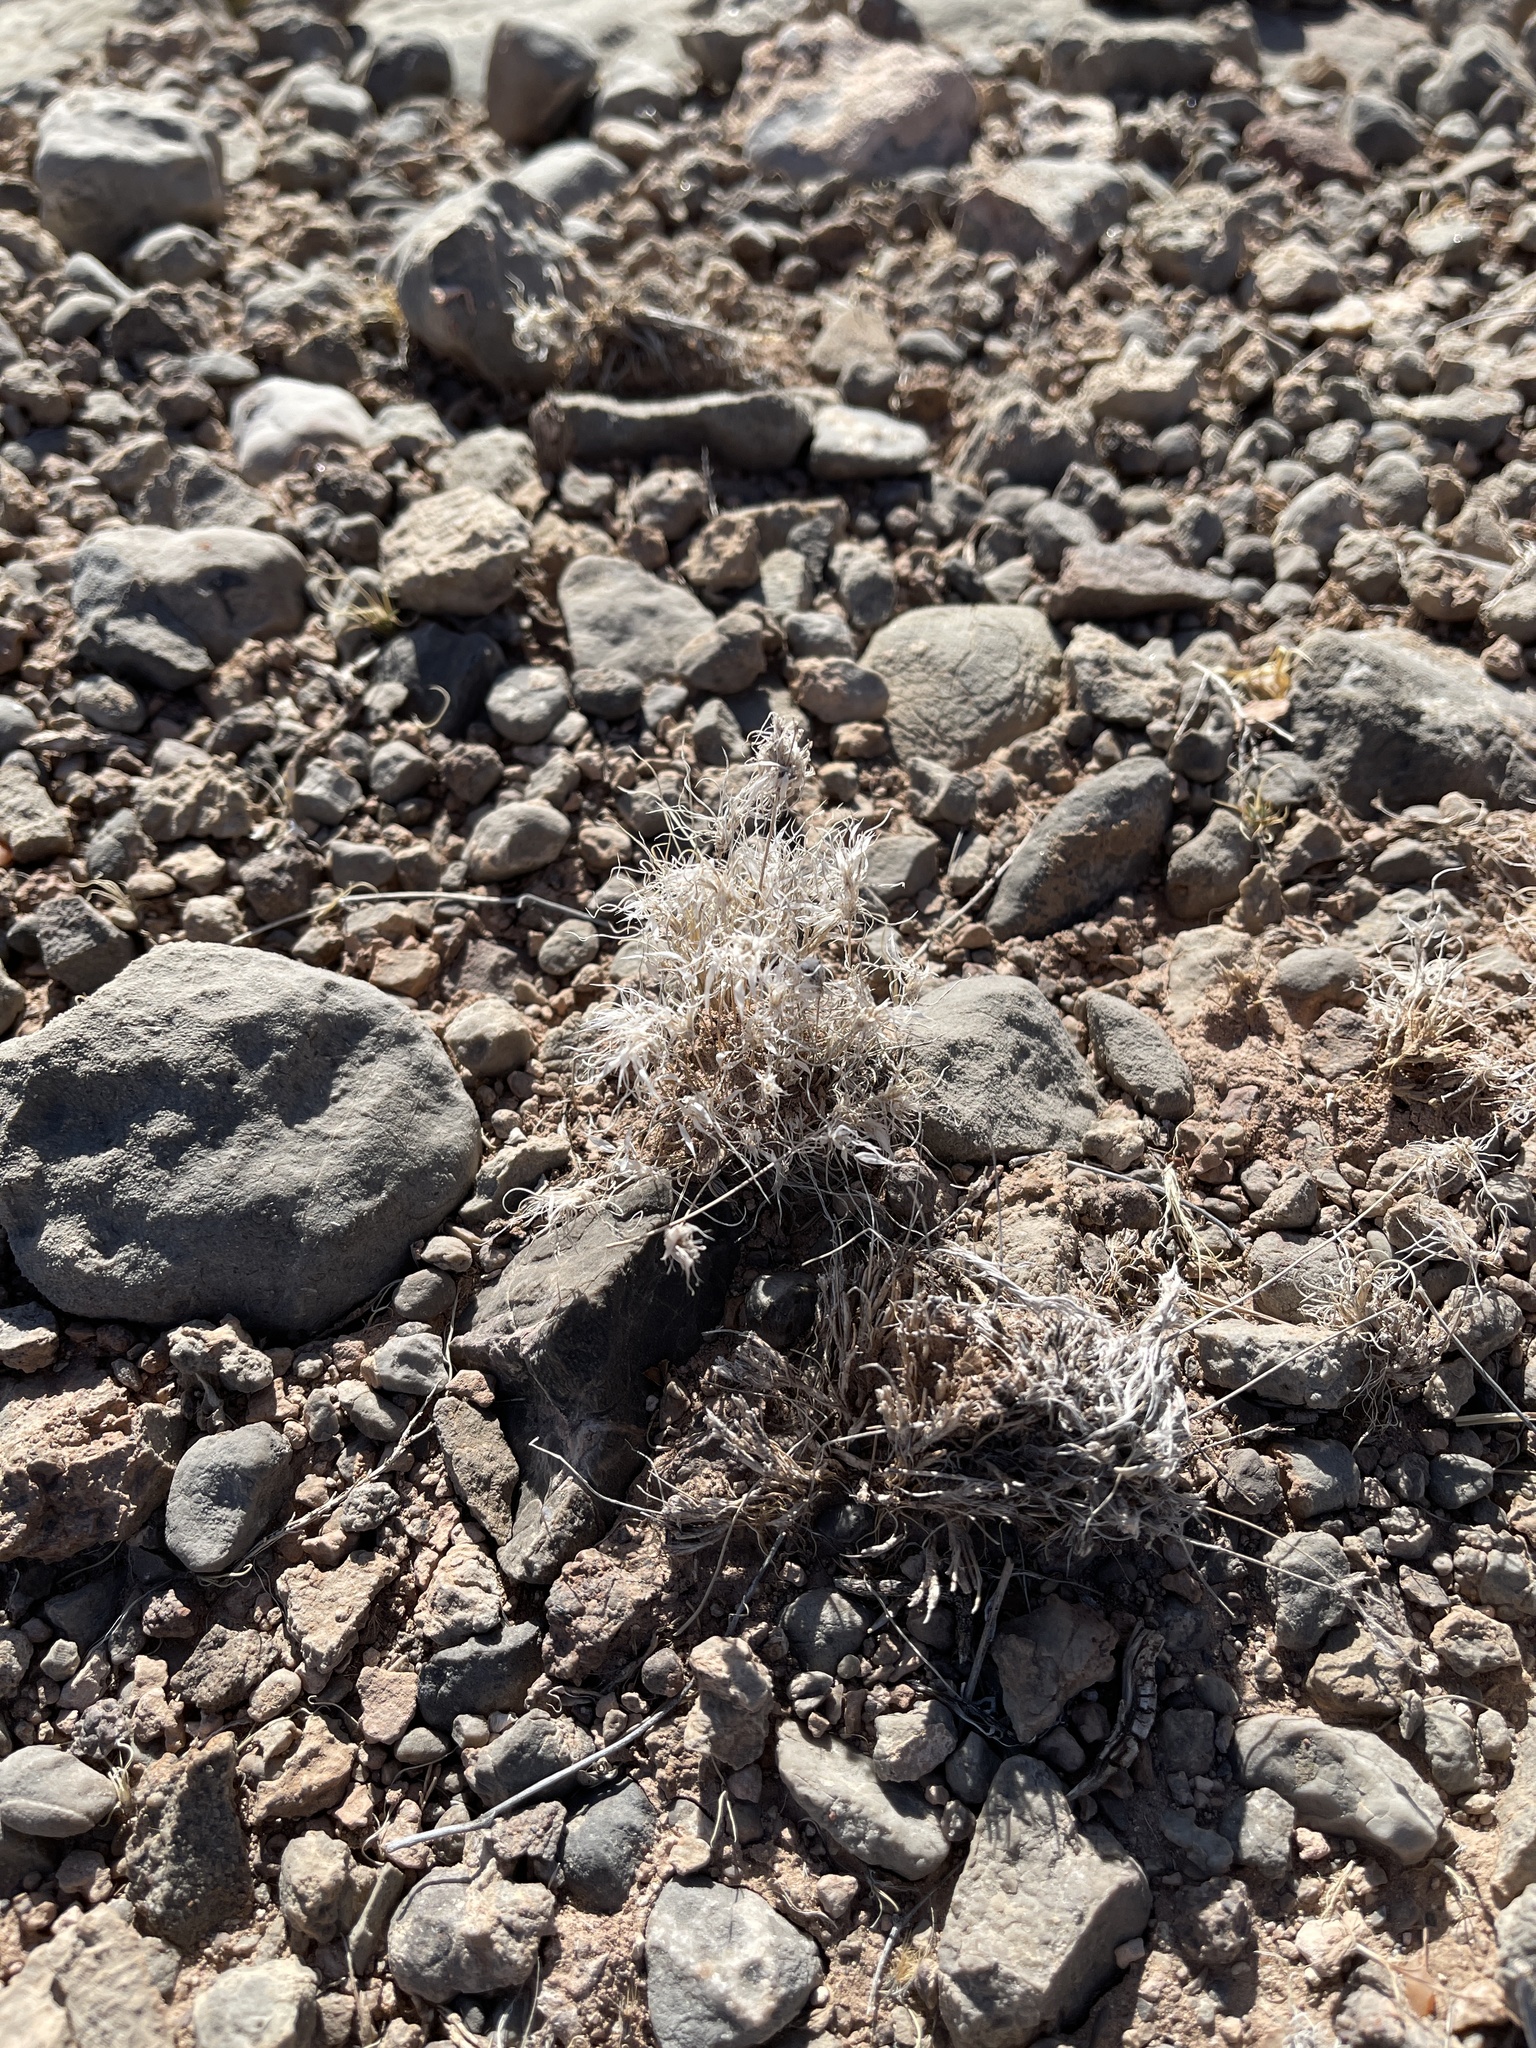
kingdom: Plantae
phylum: Tracheophyta
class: Liliopsida
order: Poales
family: Poaceae
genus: Dasyochloa
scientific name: Dasyochloa pulchella
